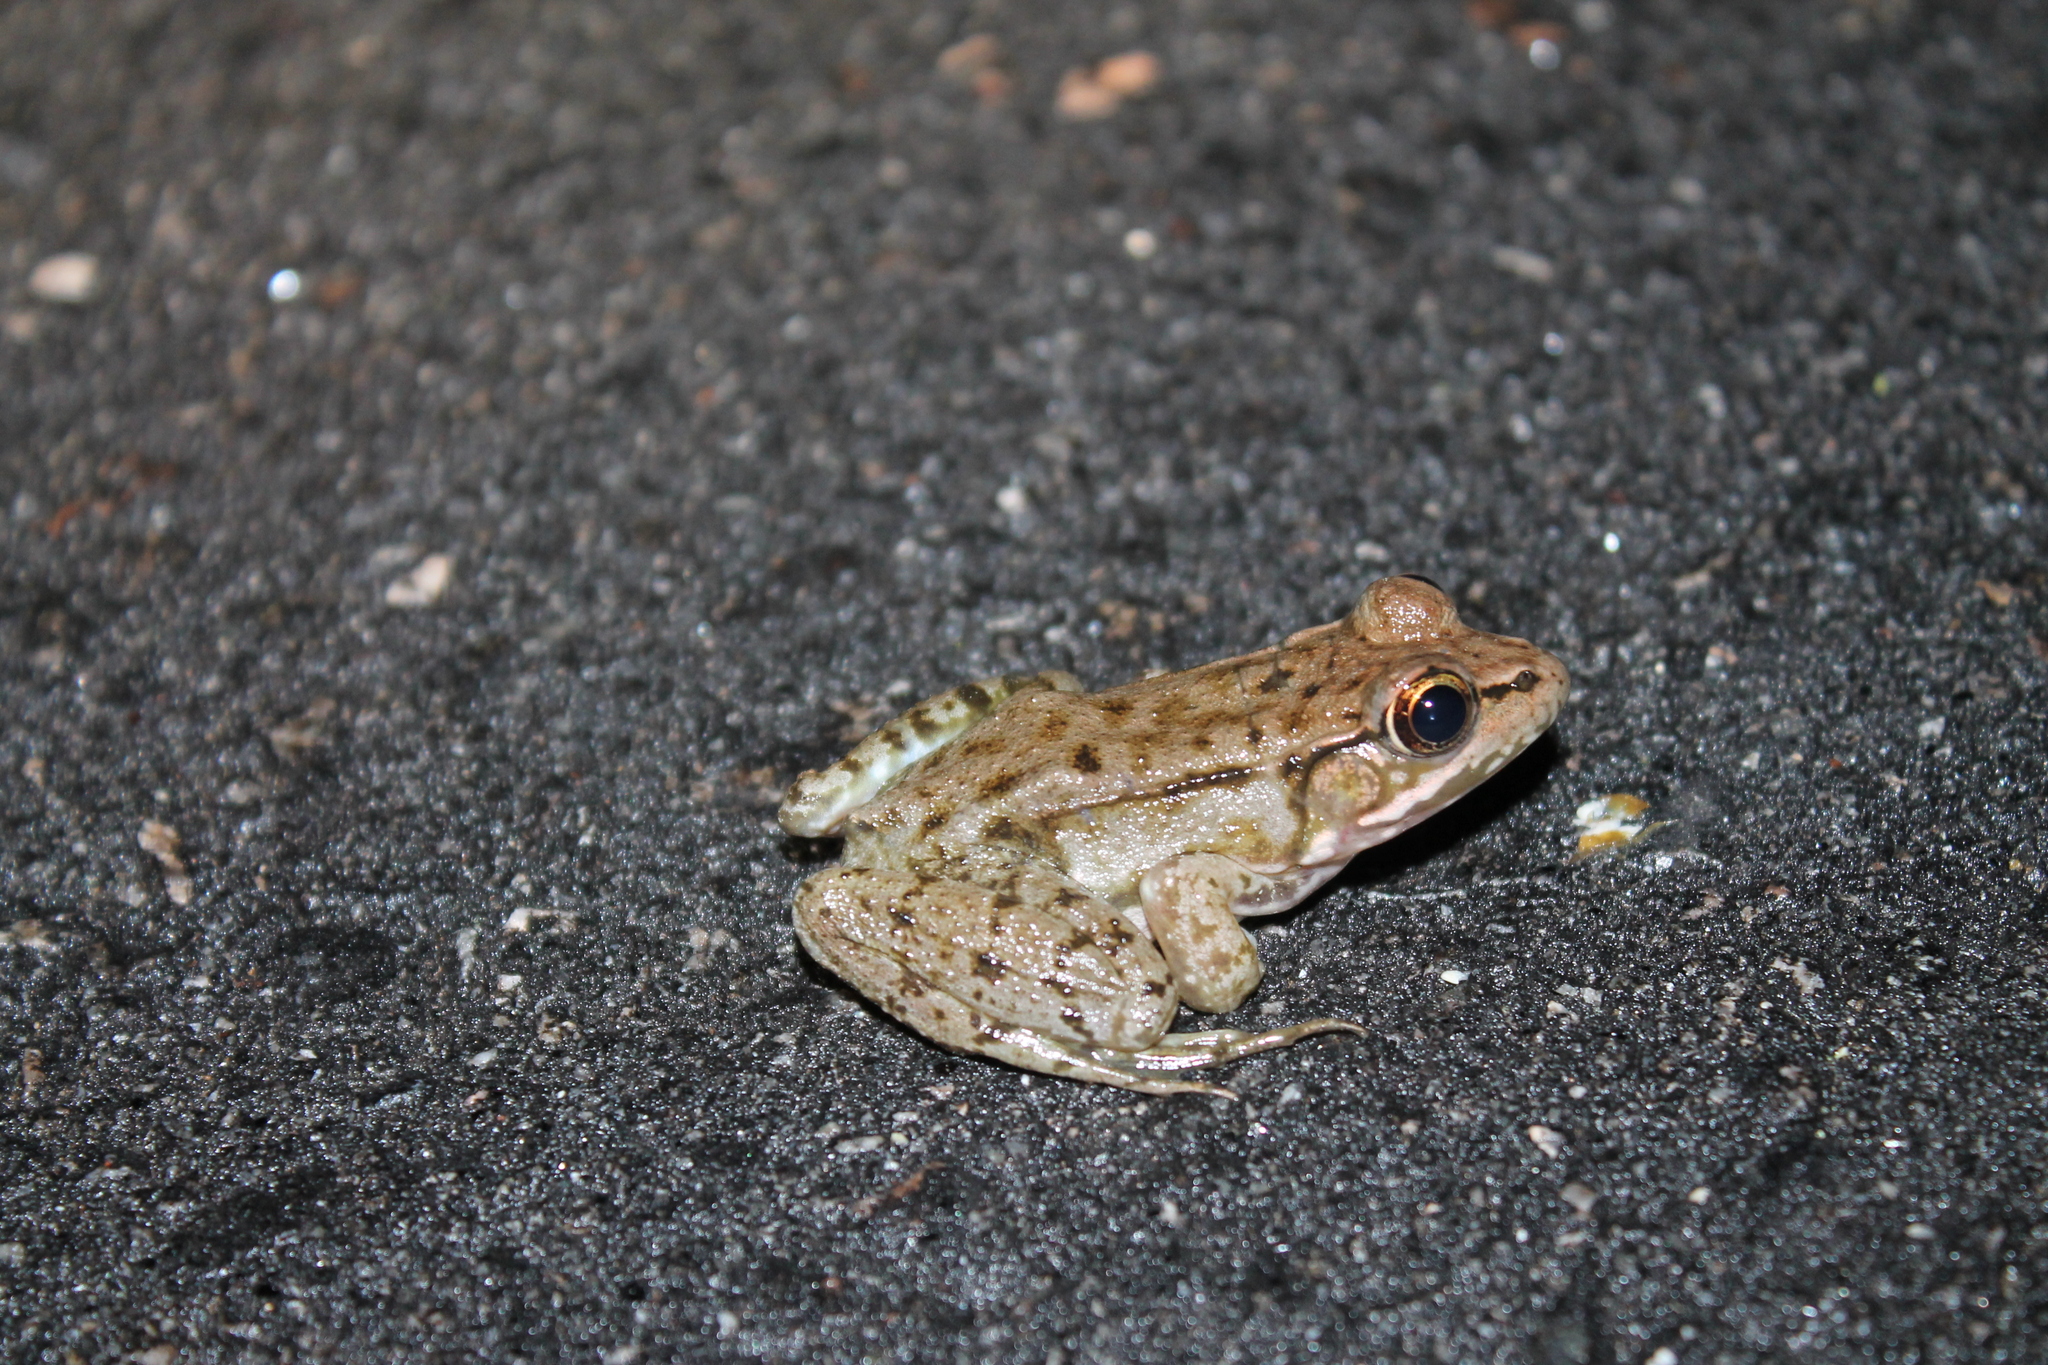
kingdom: Animalia
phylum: Chordata
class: Amphibia
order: Anura
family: Ranidae
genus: Lithobates
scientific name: Lithobates clamitans
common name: Green frog
